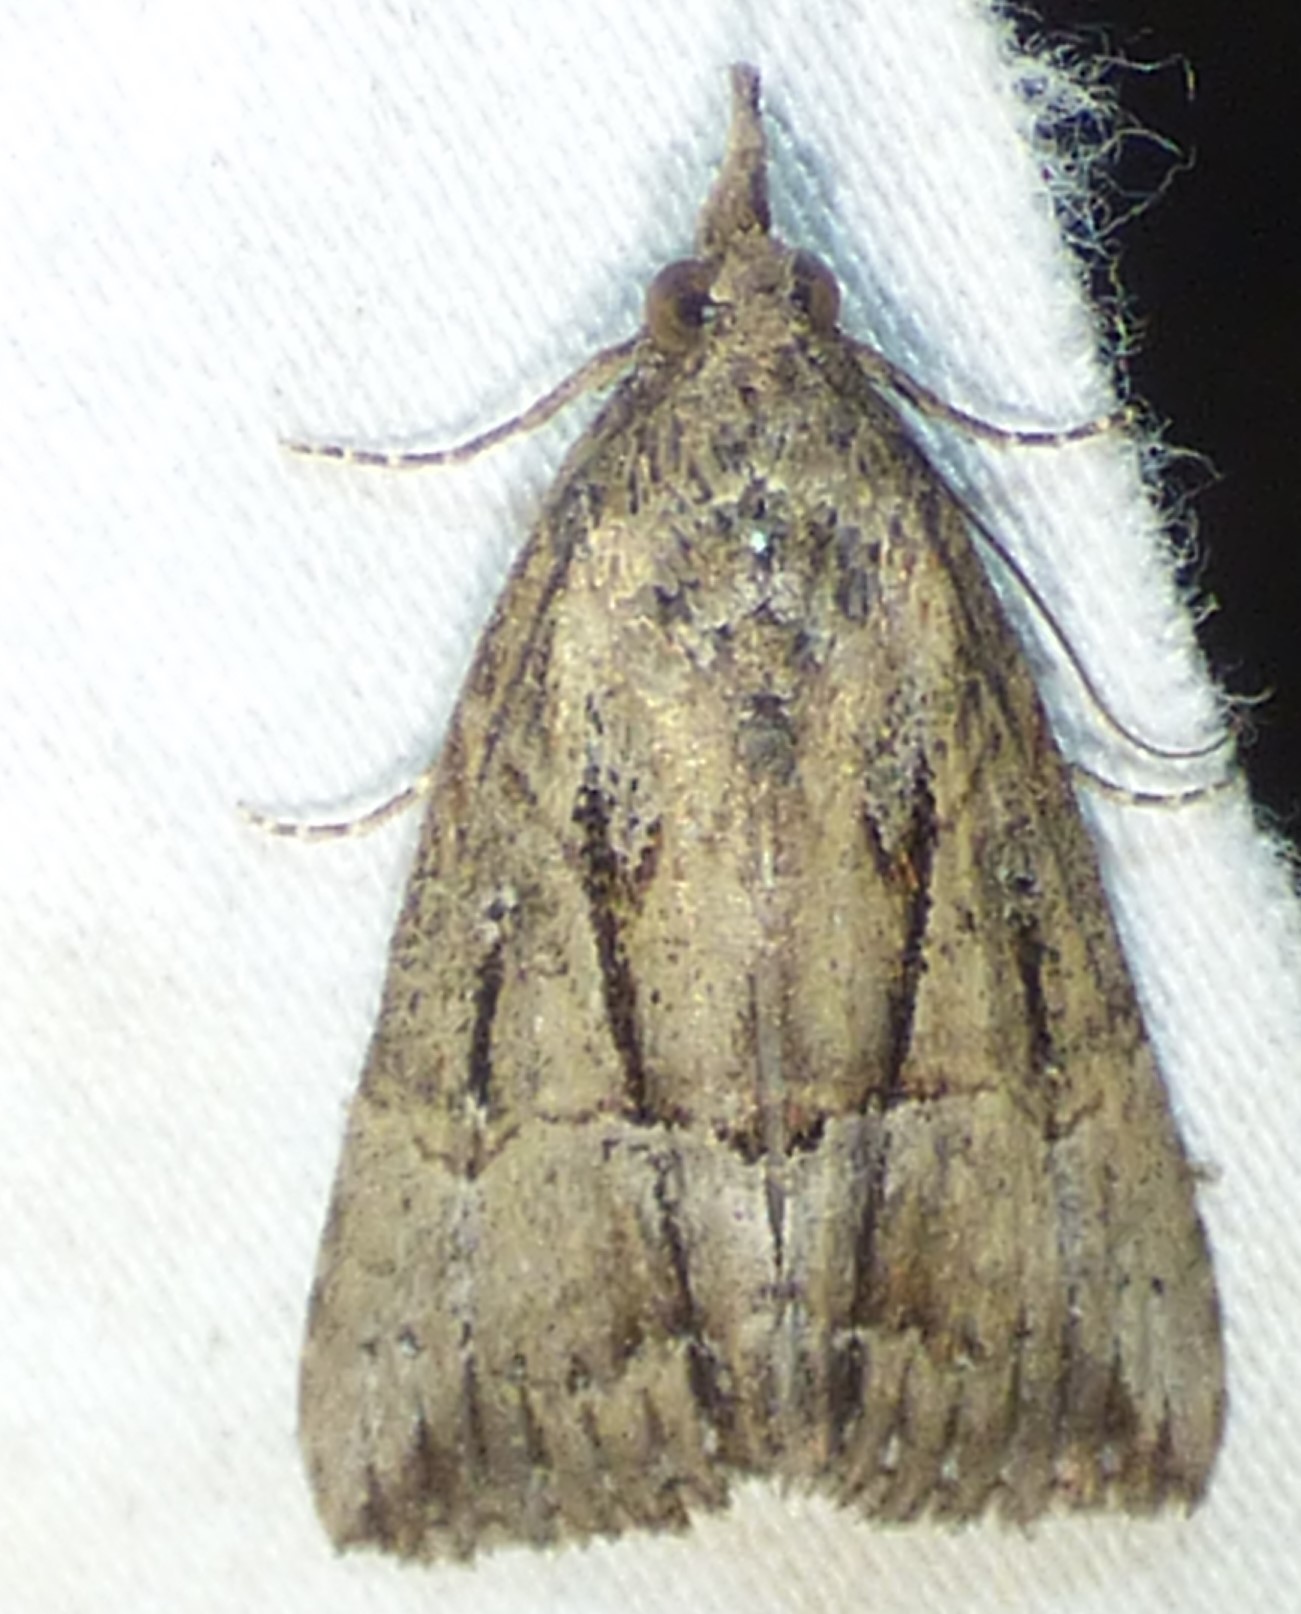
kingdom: Animalia
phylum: Arthropoda
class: Insecta
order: Lepidoptera
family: Erebidae
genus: Hypena
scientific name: Hypena scabra
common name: Green cloverworm
